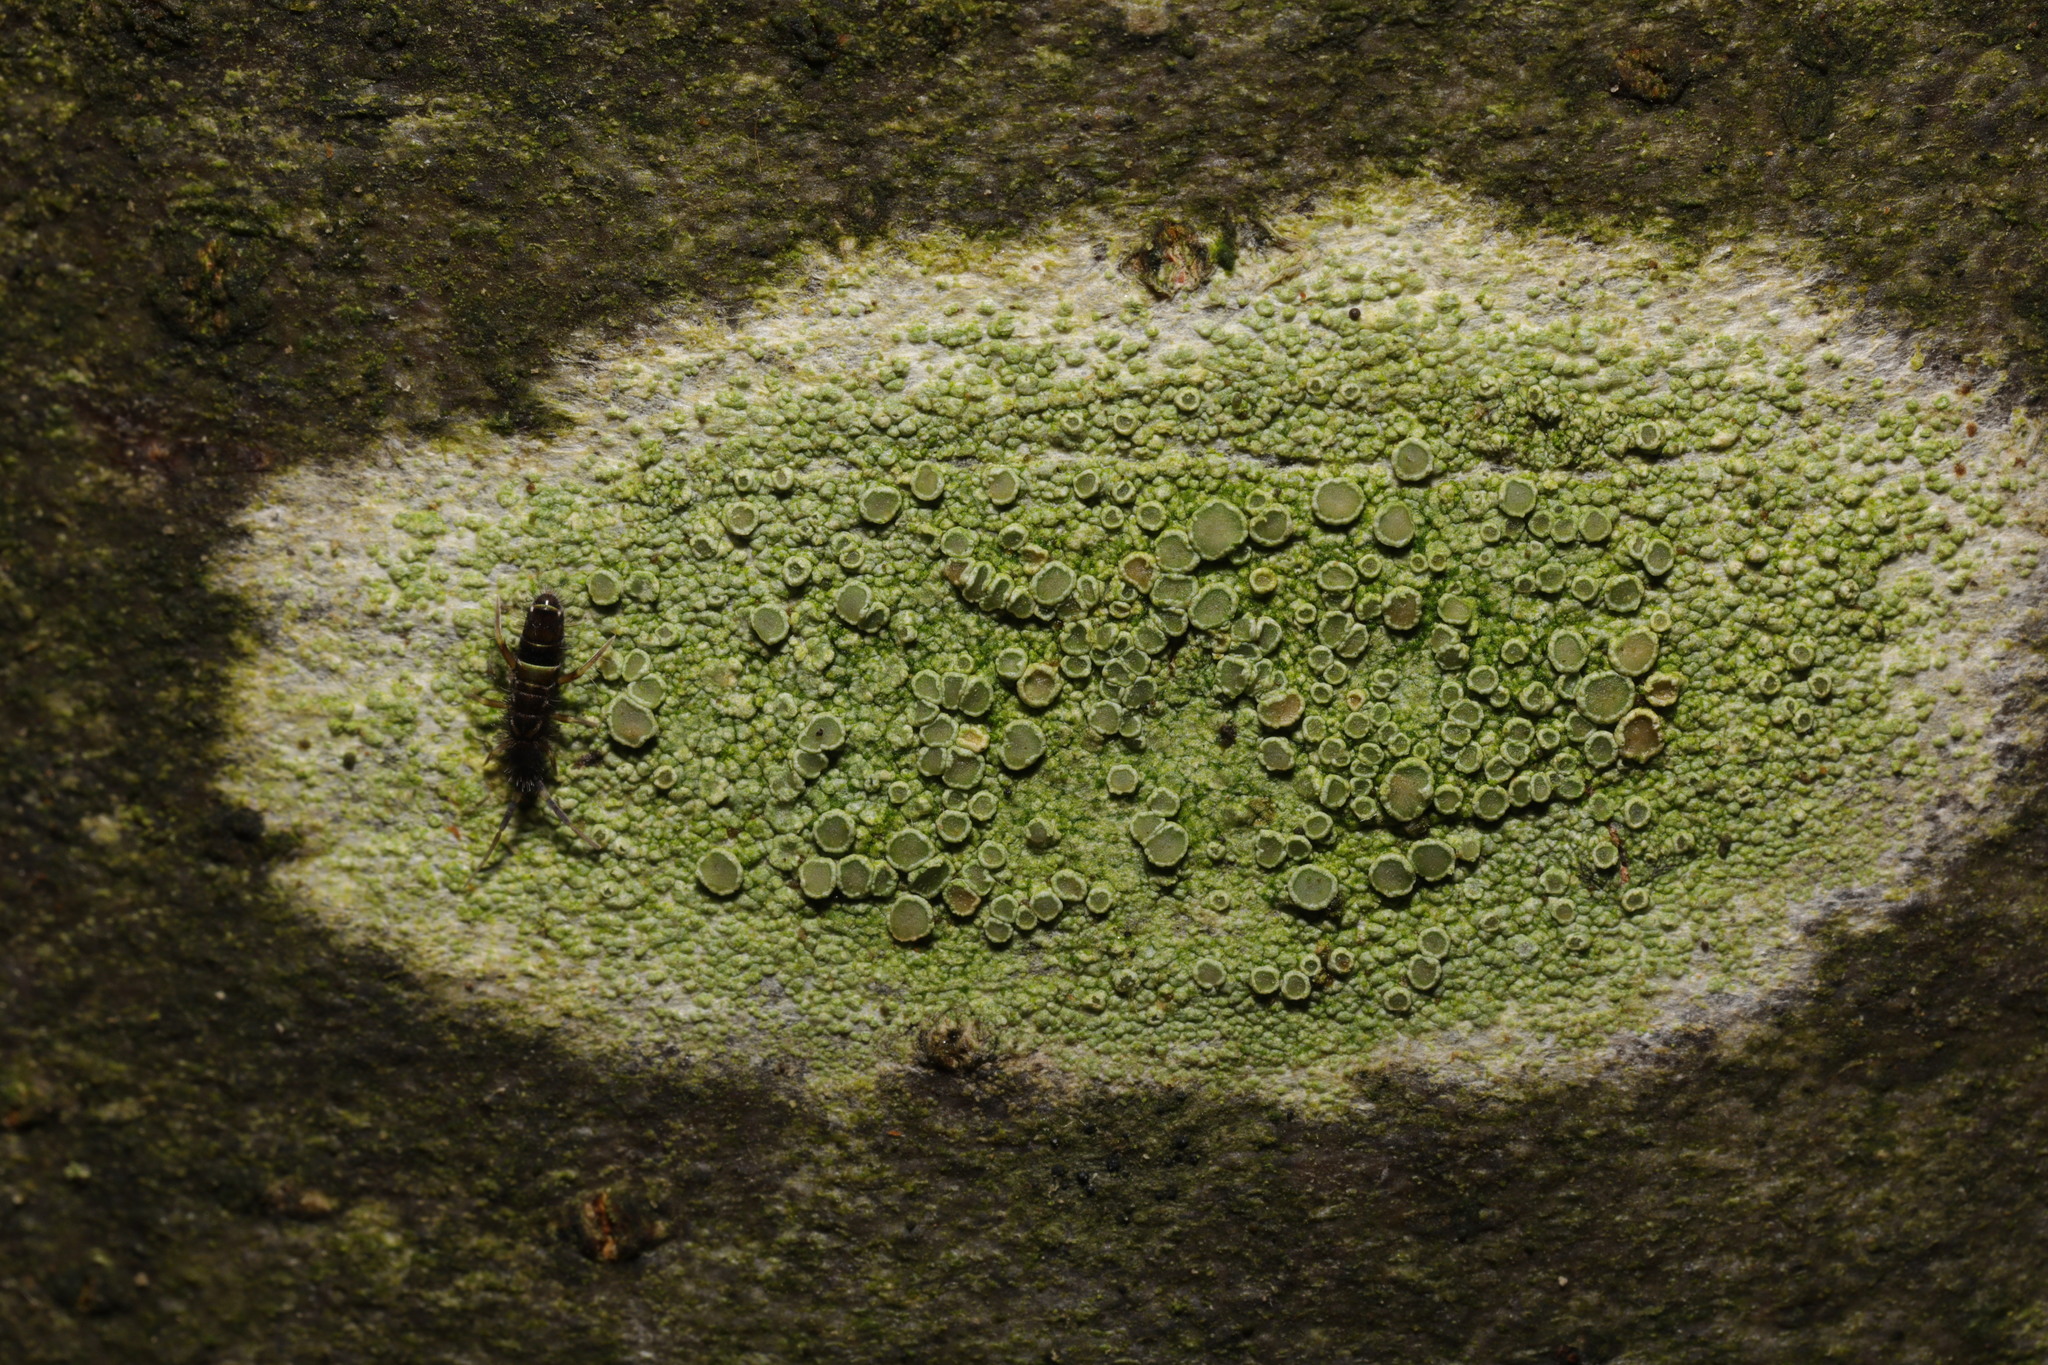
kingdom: Animalia
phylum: Arthropoda
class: Collembola
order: Entomobryomorpha
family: Orchesellidae
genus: Orchesella
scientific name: Orchesella cincta
